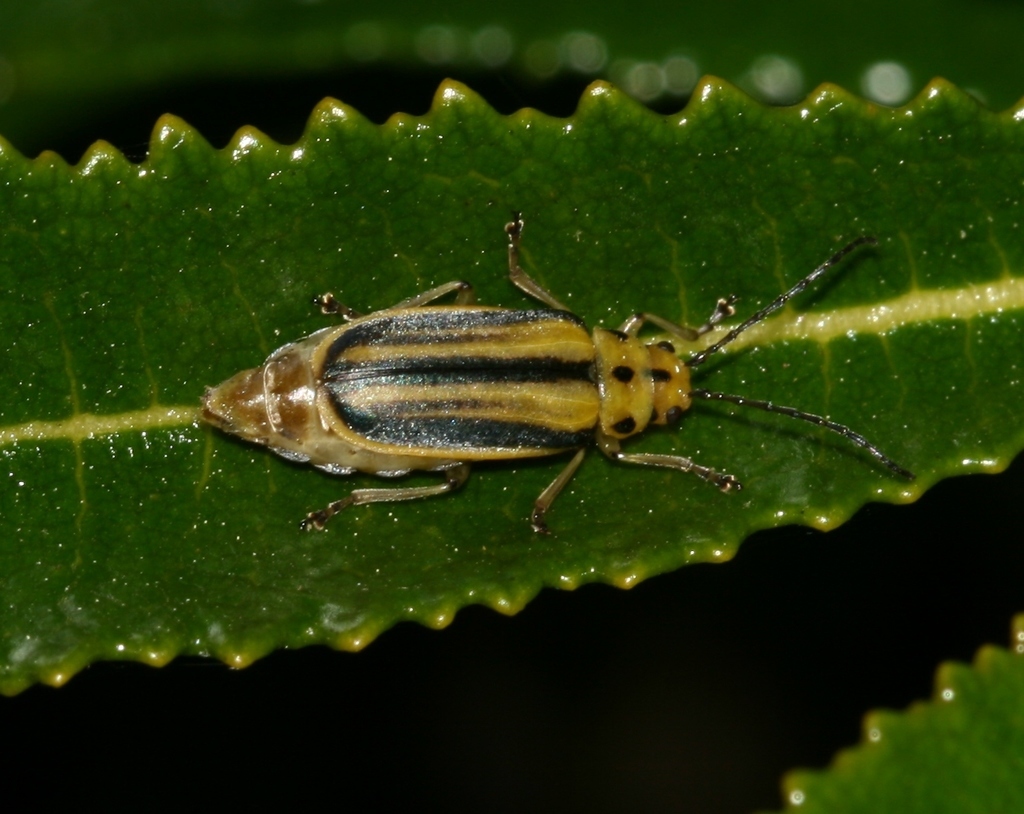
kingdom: Animalia
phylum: Arthropoda
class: Insecta
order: Coleoptera
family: Chrysomelidae
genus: Trirhabda
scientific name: Trirhabda diducta
